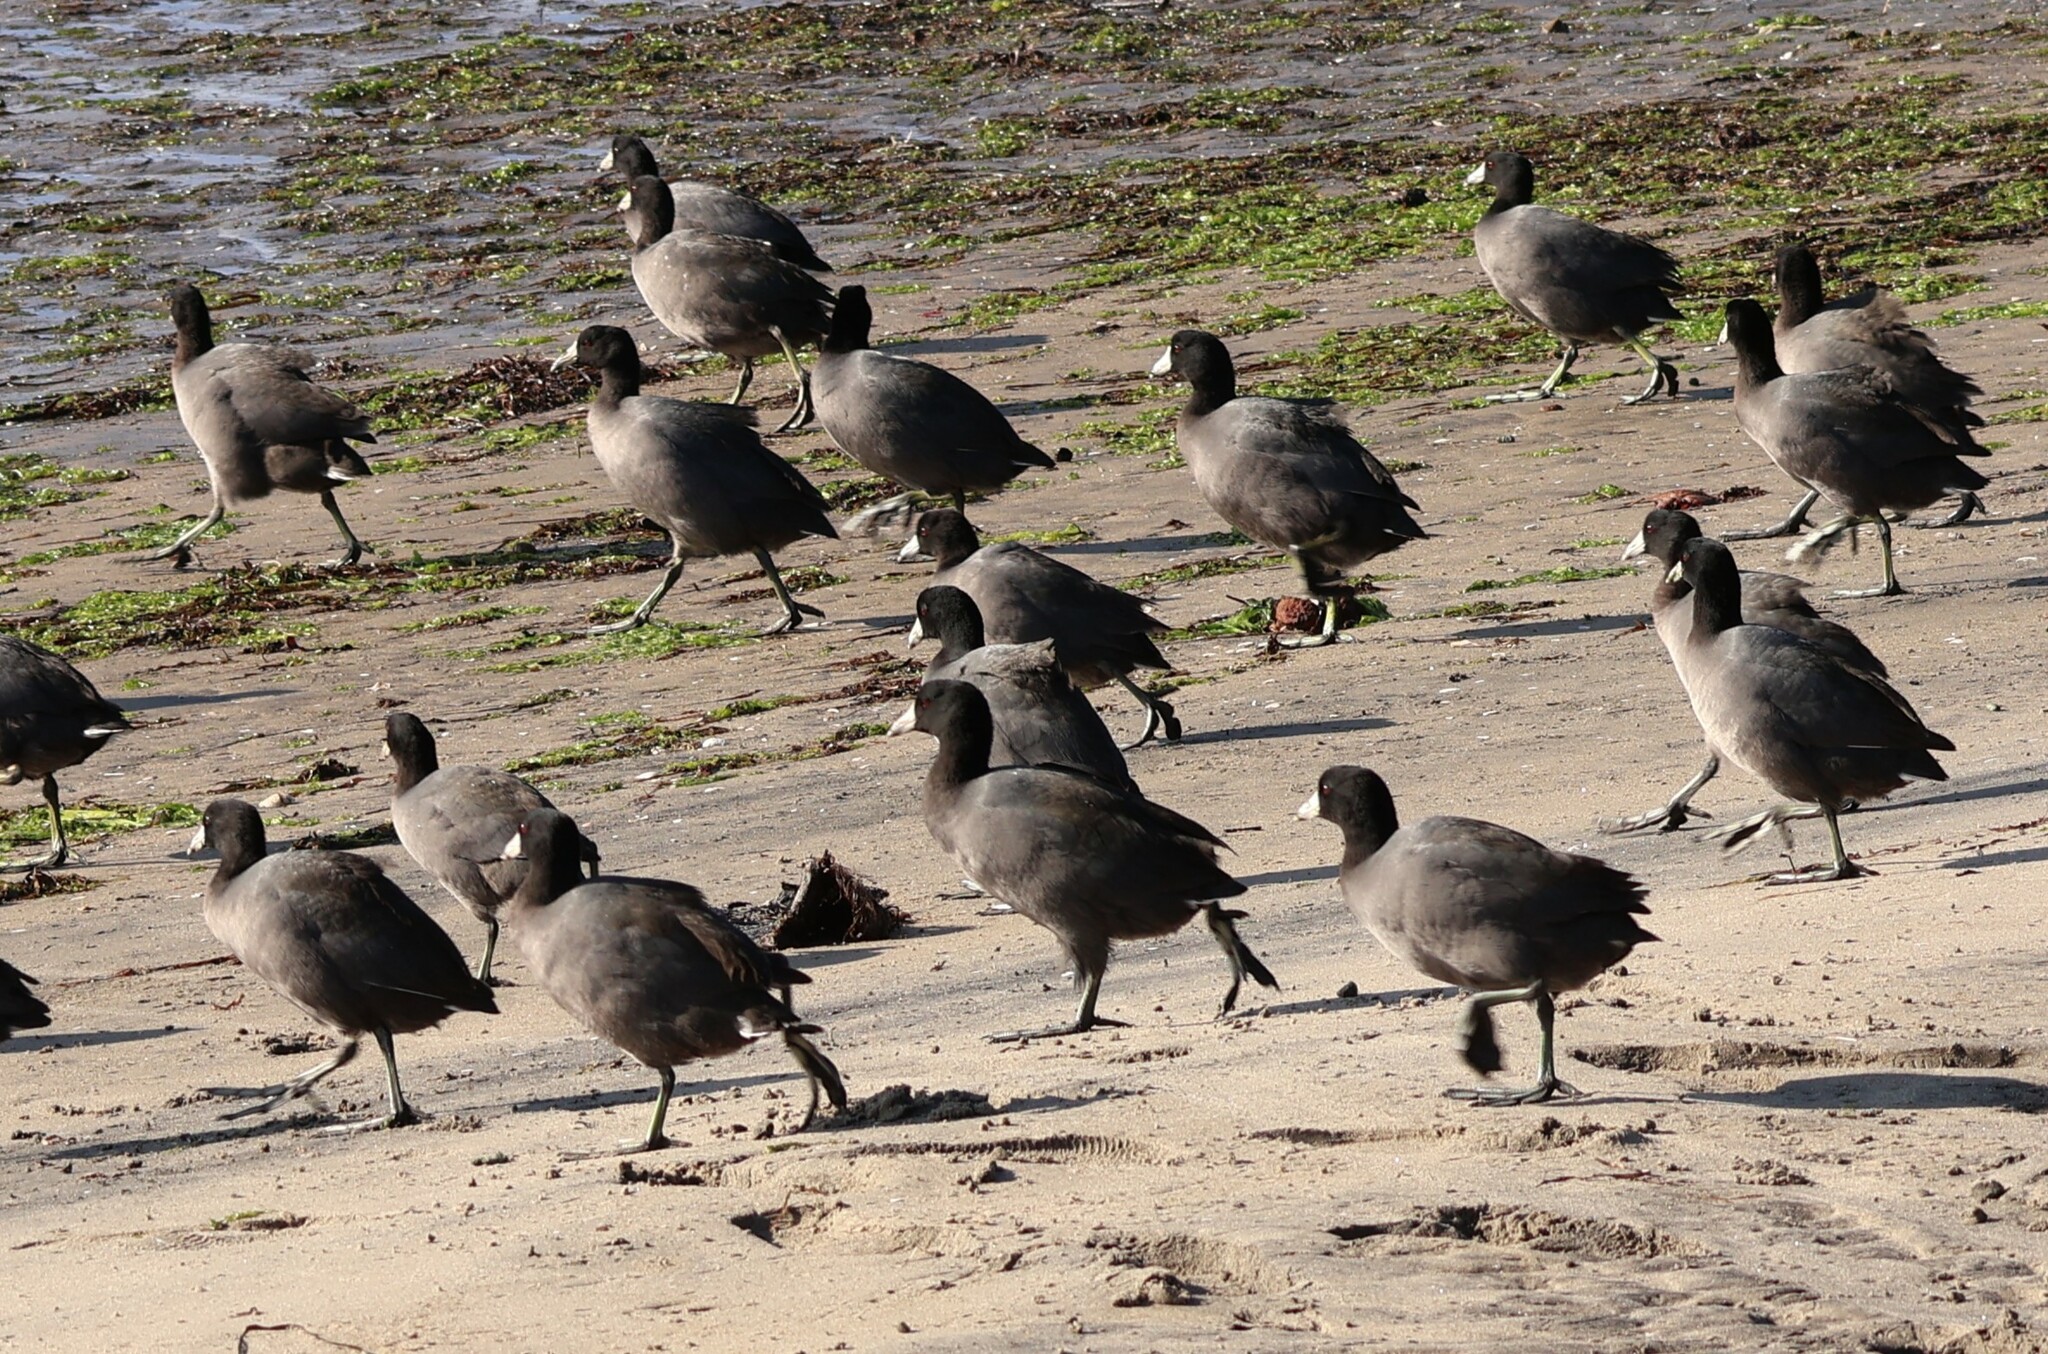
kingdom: Animalia
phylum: Chordata
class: Aves
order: Gruiformes
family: Rallidae
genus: Fulica
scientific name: Fulica americana
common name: American coot
